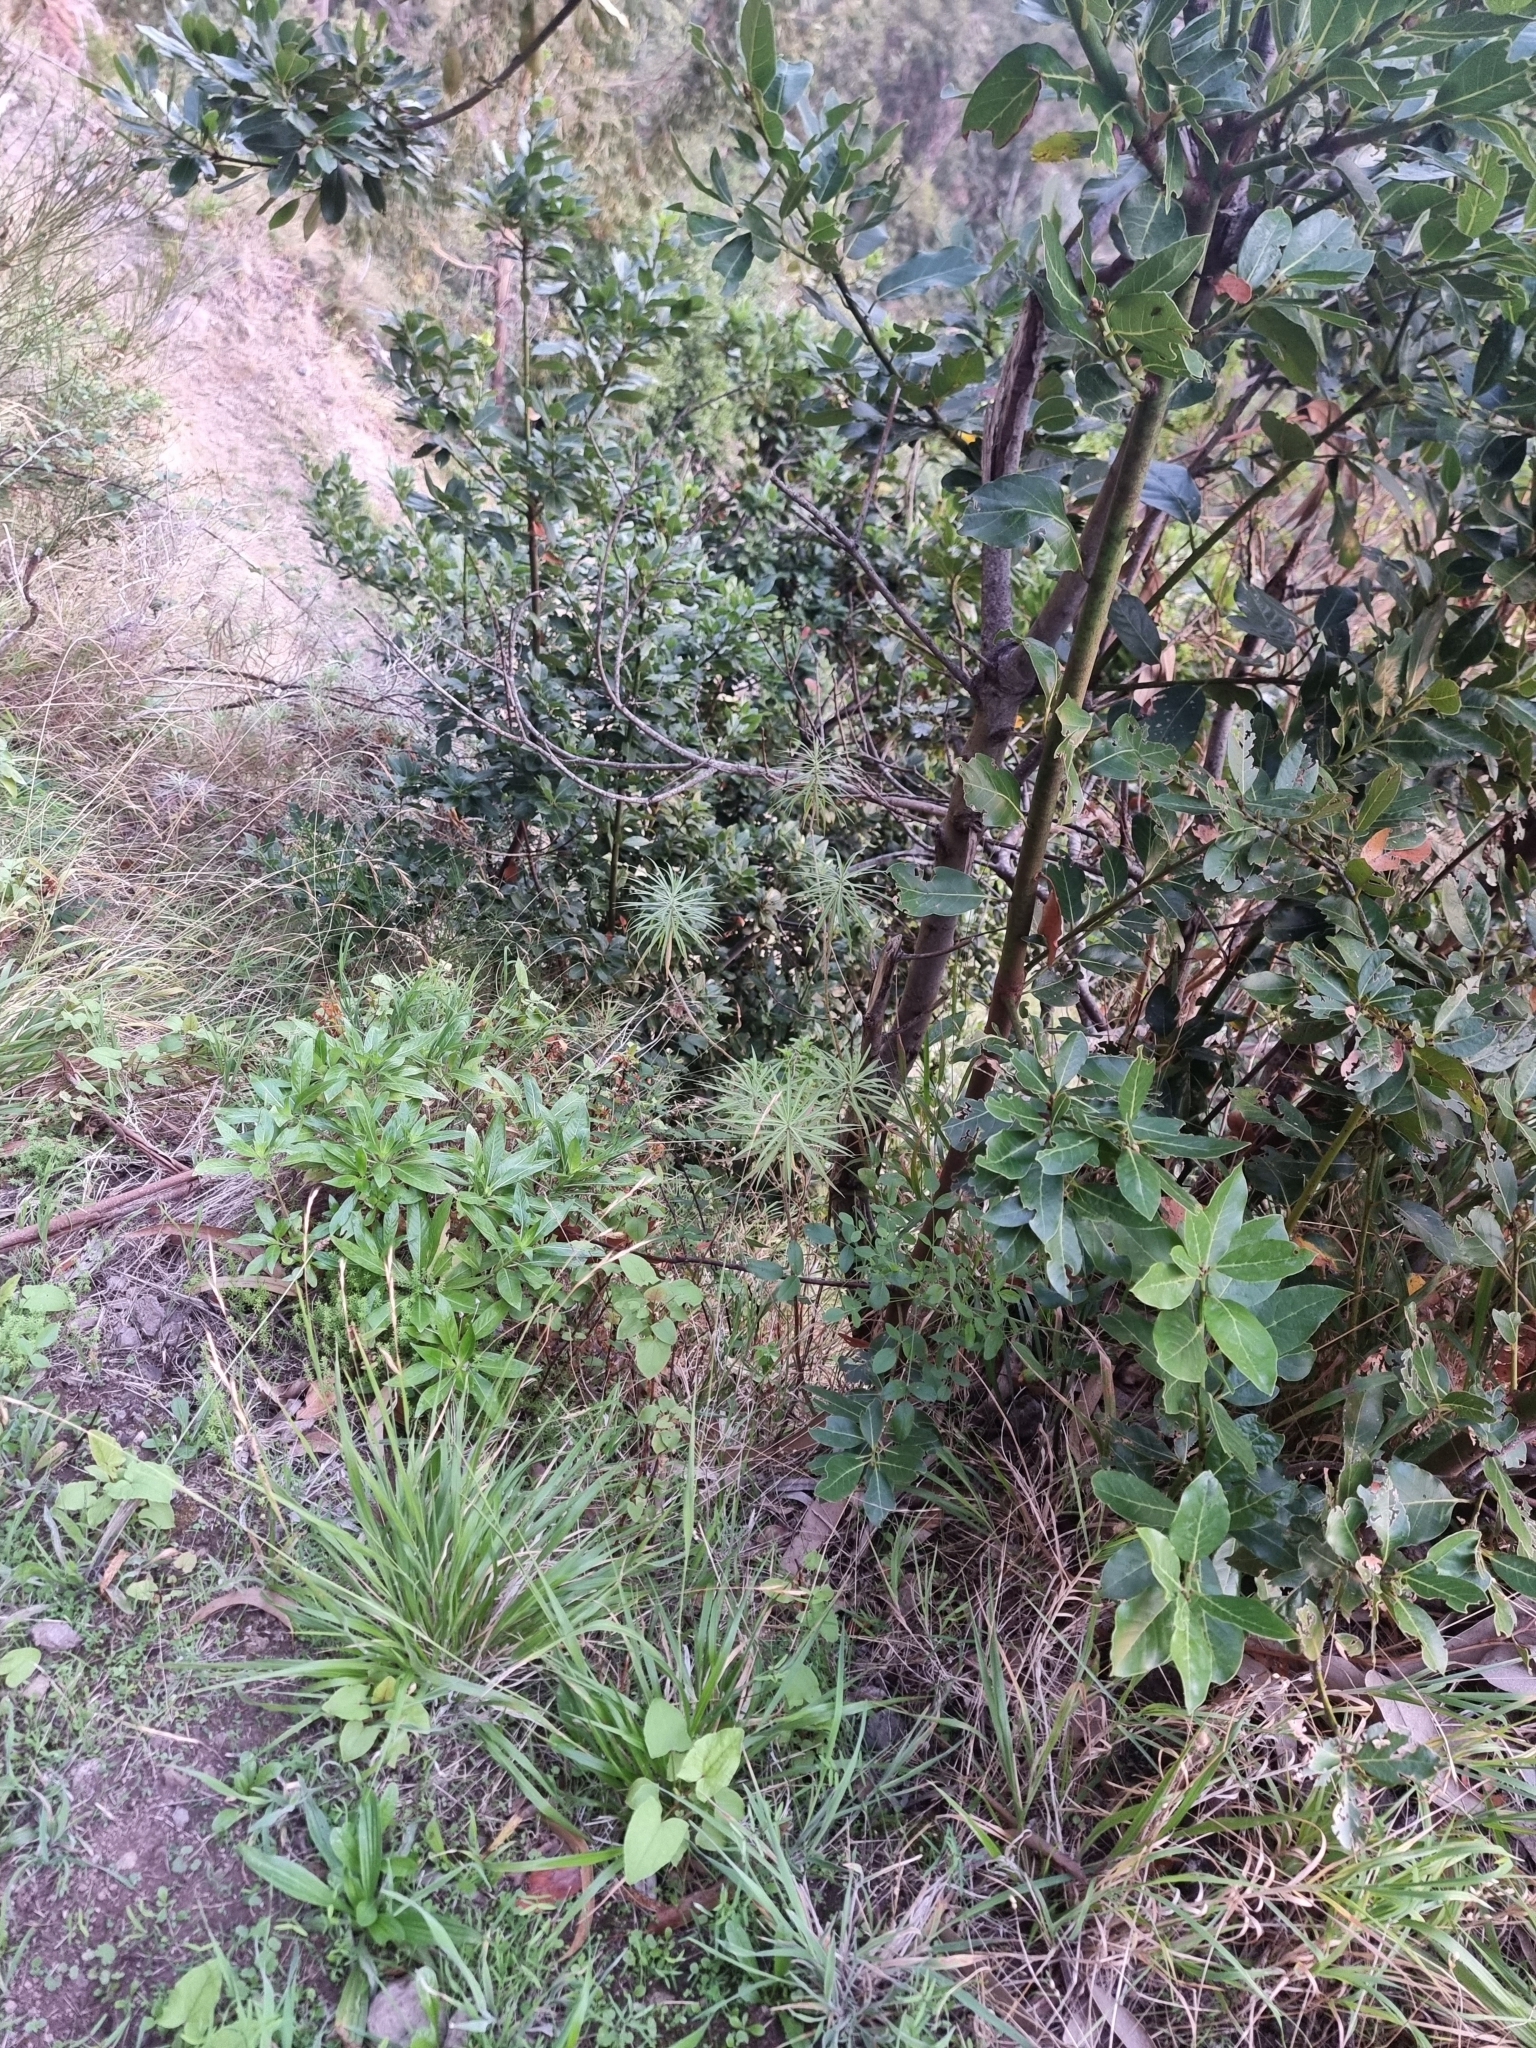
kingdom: Plantae
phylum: Tracheophyta
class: Magnoliopsida
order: Brassicales
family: Brassicaceae
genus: Erysimum
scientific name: Erysimum bicolor
